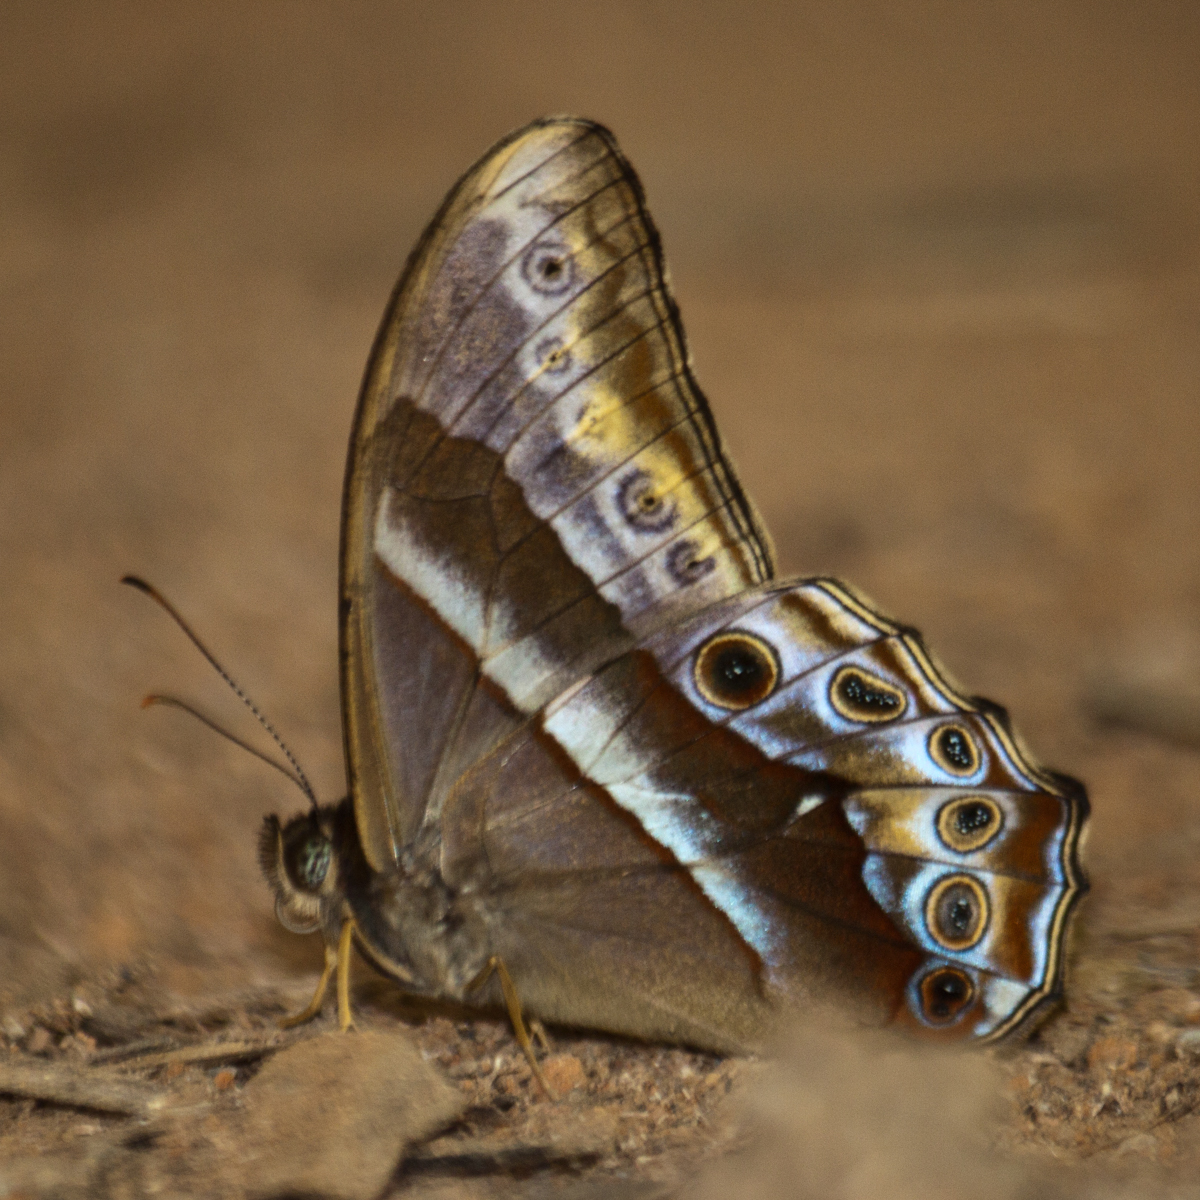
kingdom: Animalia
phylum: Arthropoda
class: Insecta
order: Lepidoptera
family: Nymphalidae
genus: Lethe
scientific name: Lethe mekara
